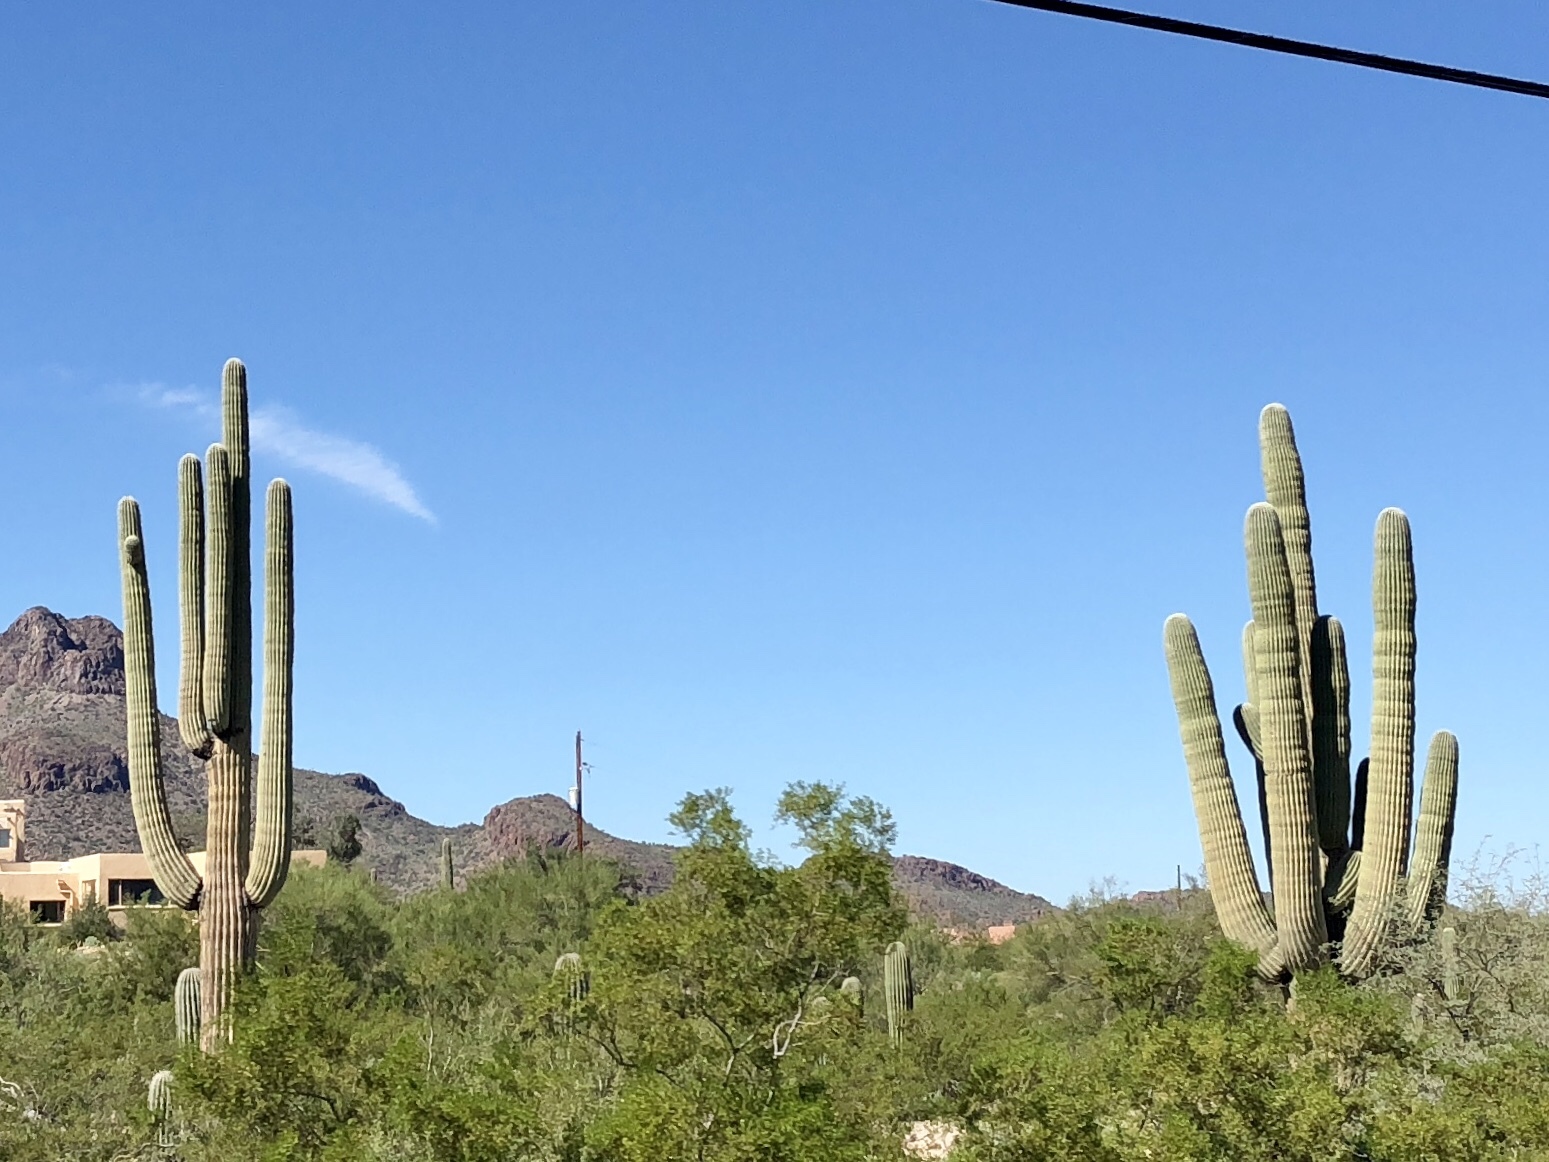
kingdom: Plantae
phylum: Tracheophyta
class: Magnoliopsida
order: Caryophyllales
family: Cactaceae
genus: Carnegiea
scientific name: Carnegiea gigantea
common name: Saguaro
